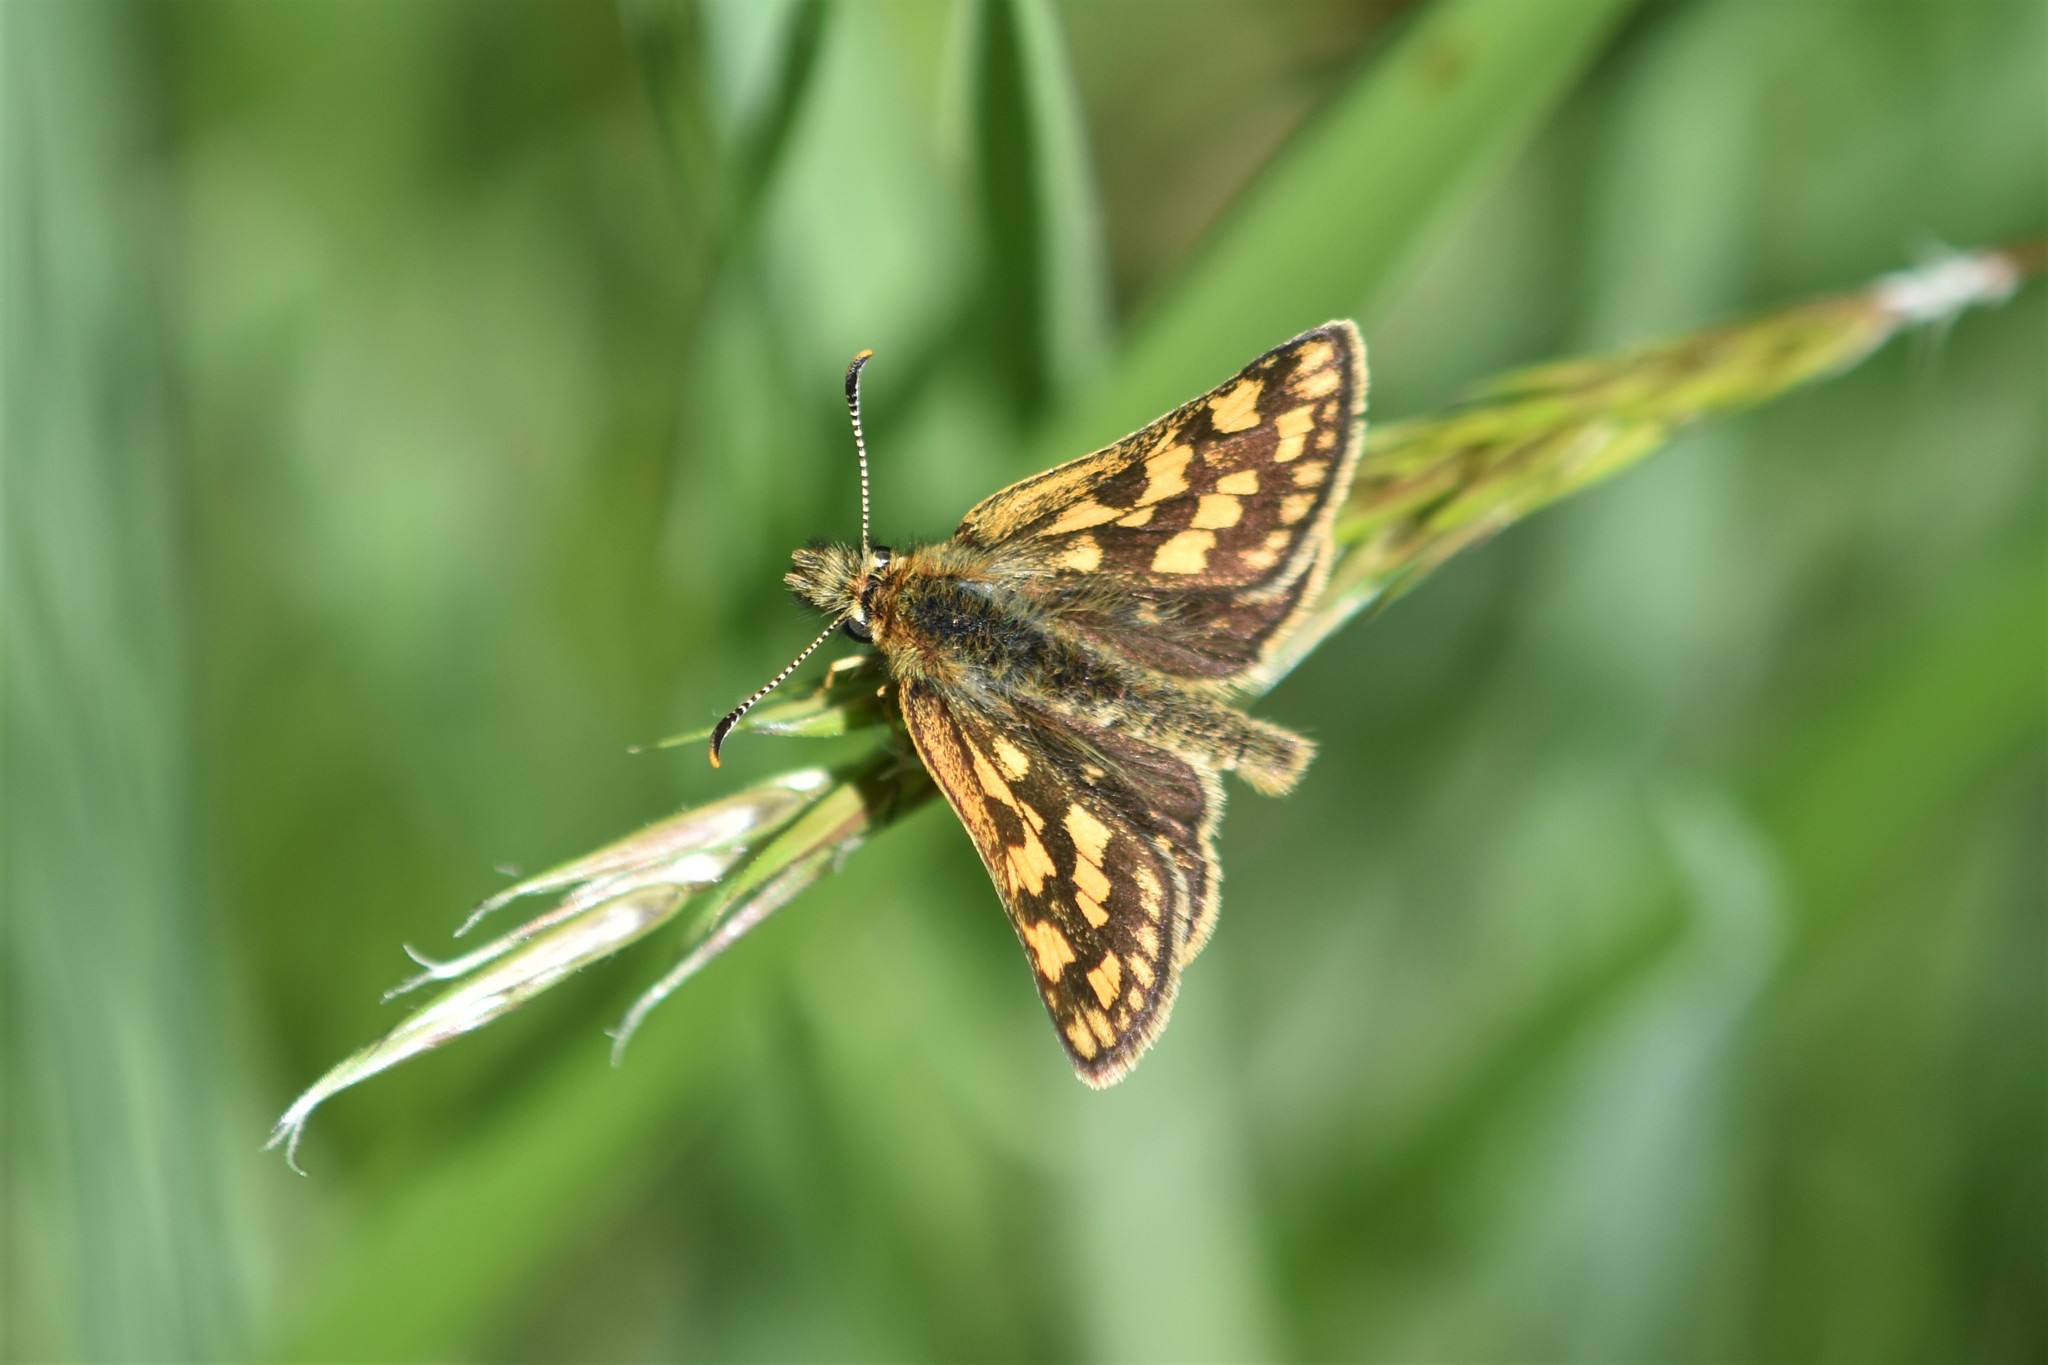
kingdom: Animalia
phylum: Arthropoda
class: Insecta
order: Lepidoptera
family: Hesperiidae
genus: Carterocephalus
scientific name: Carterocephalus skada
